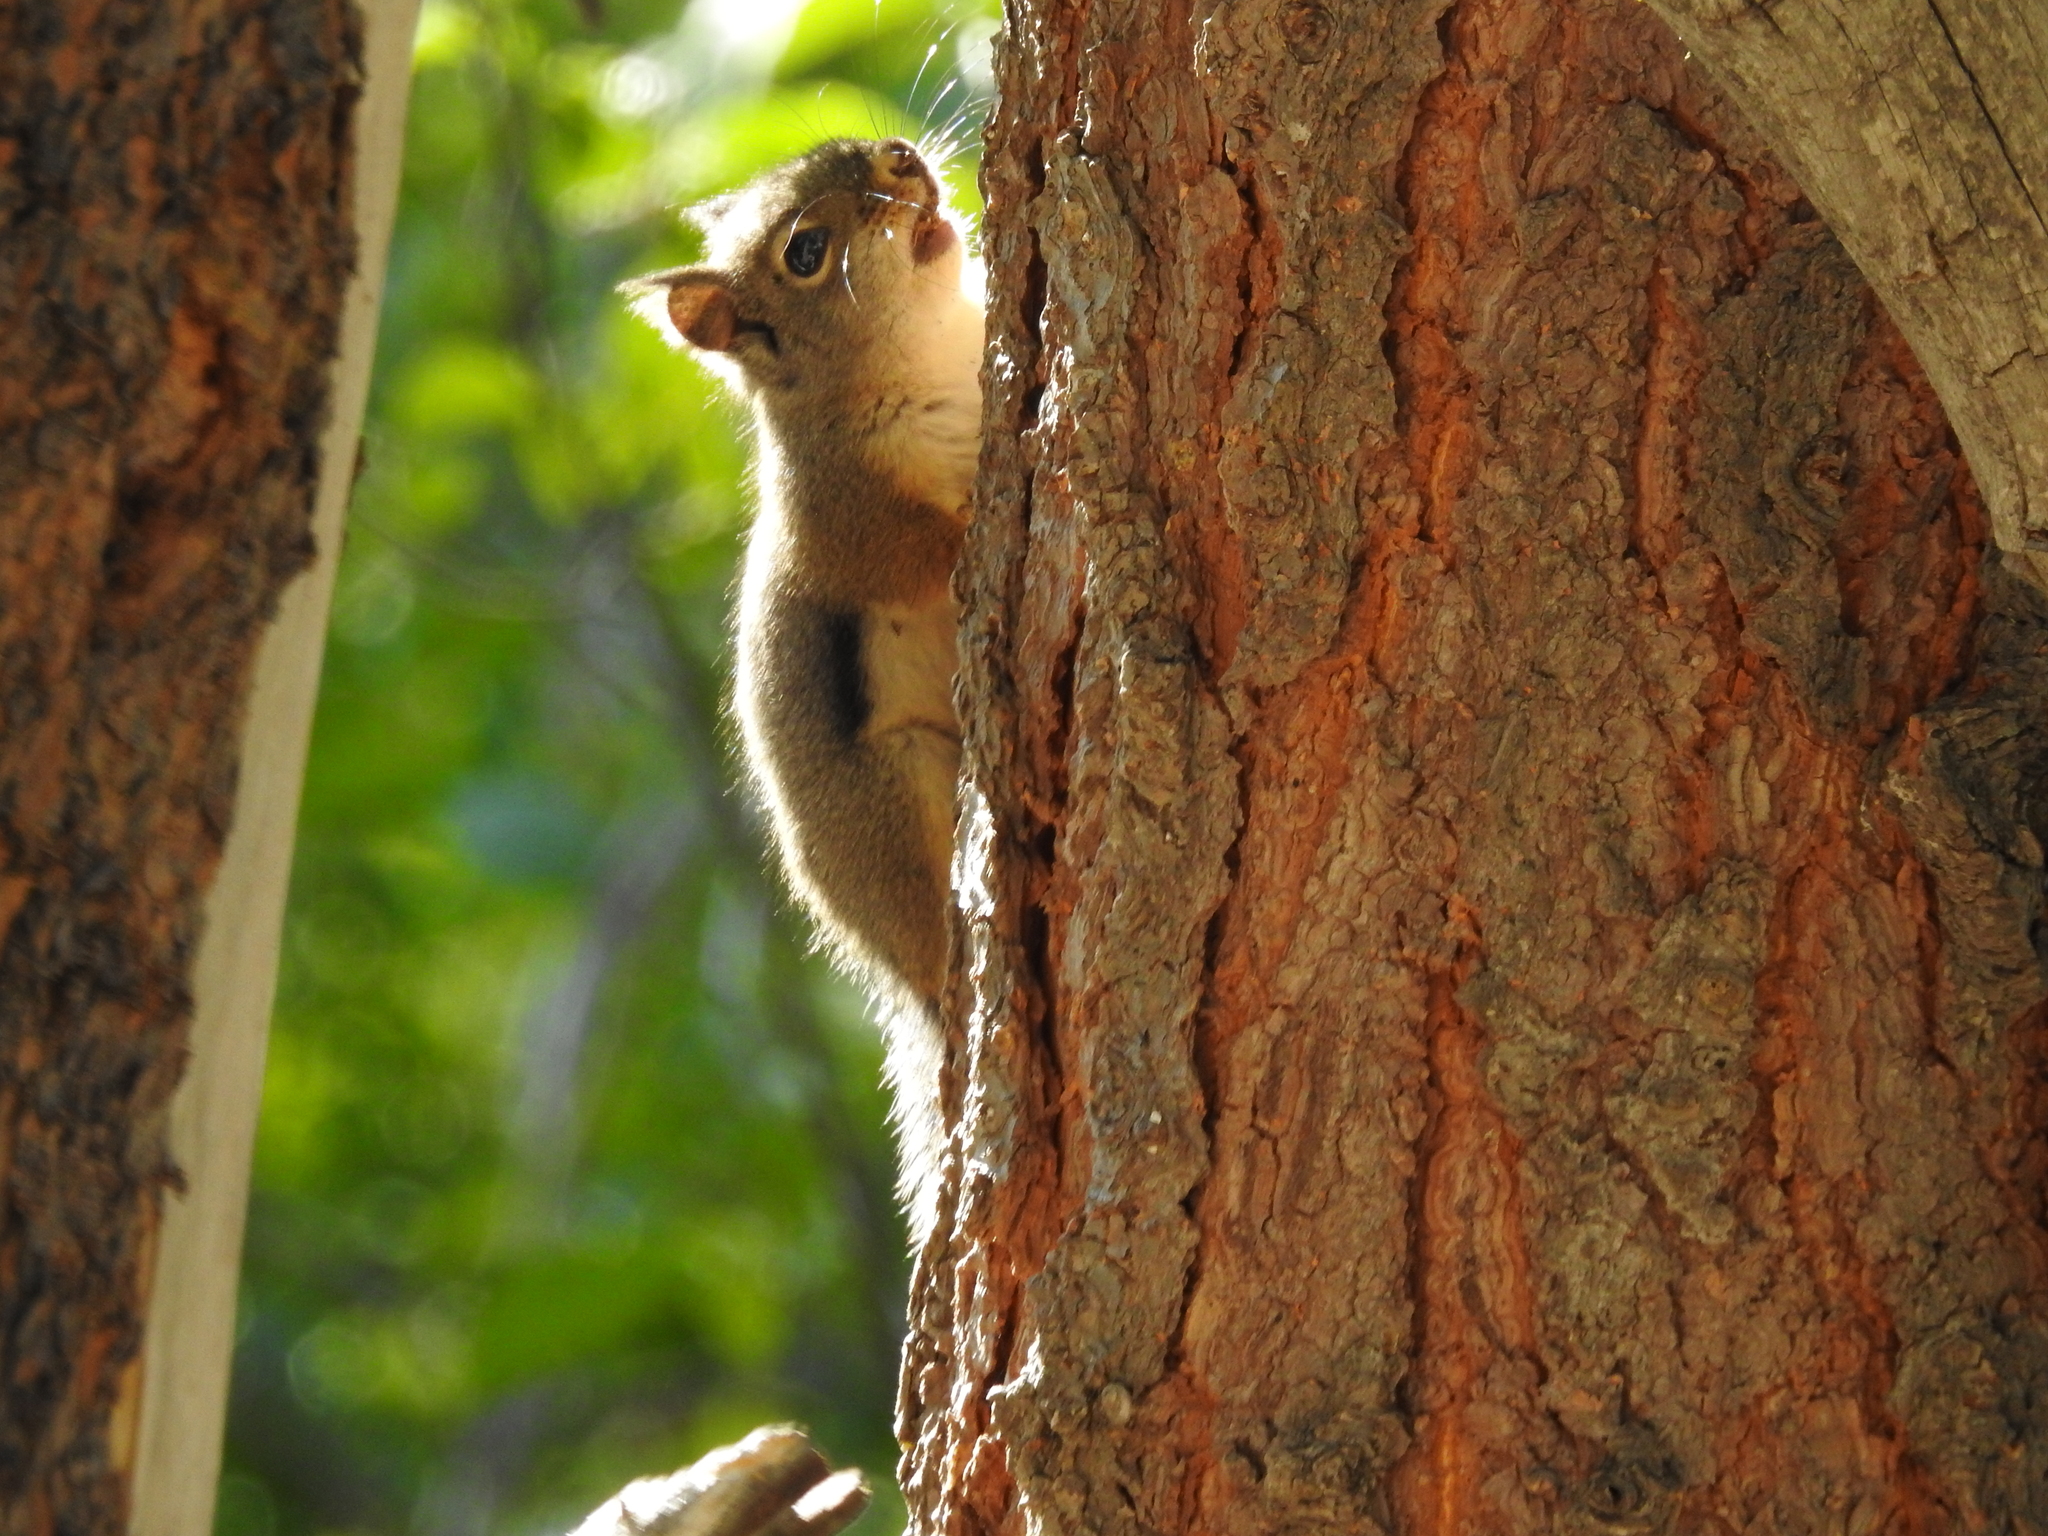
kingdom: Animalia
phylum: Chordata
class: Mammalia
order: Rodentia
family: Sciuridae
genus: Tamiasciurus
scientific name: Tamiasciurus douglasii
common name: Douglas's squirrel
